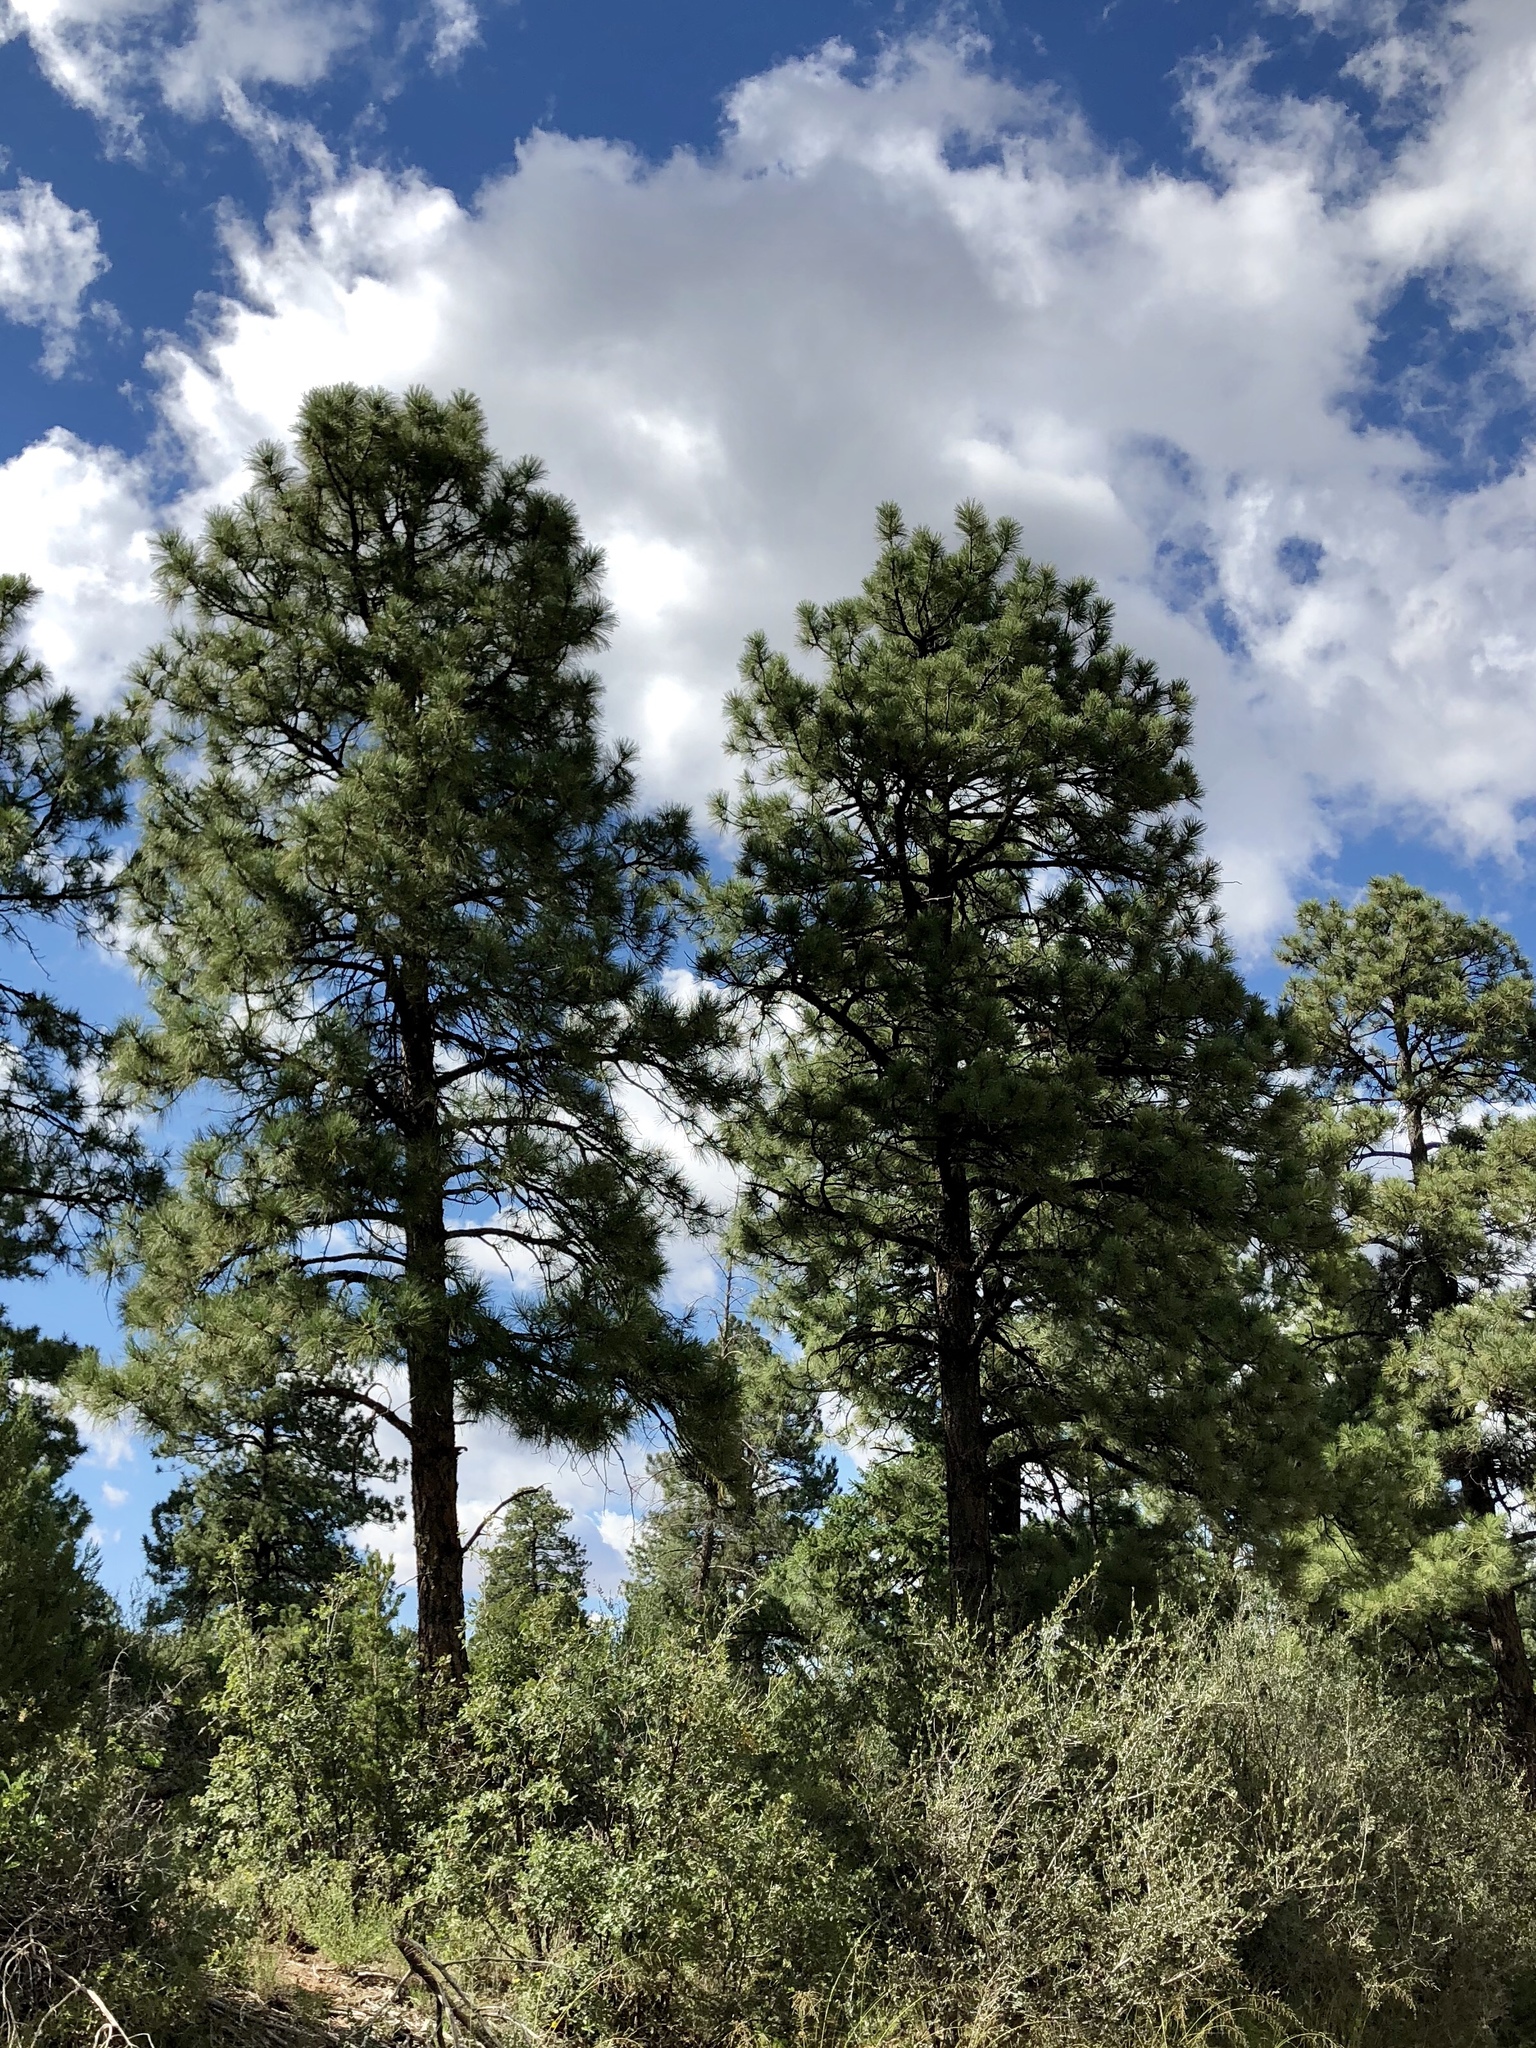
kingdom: Plantae
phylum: Tracheophyta
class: Pinopsida
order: Pinales
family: Pinaceae
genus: Pinus
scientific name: Pinus ponderosa
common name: Western yellow-pine
